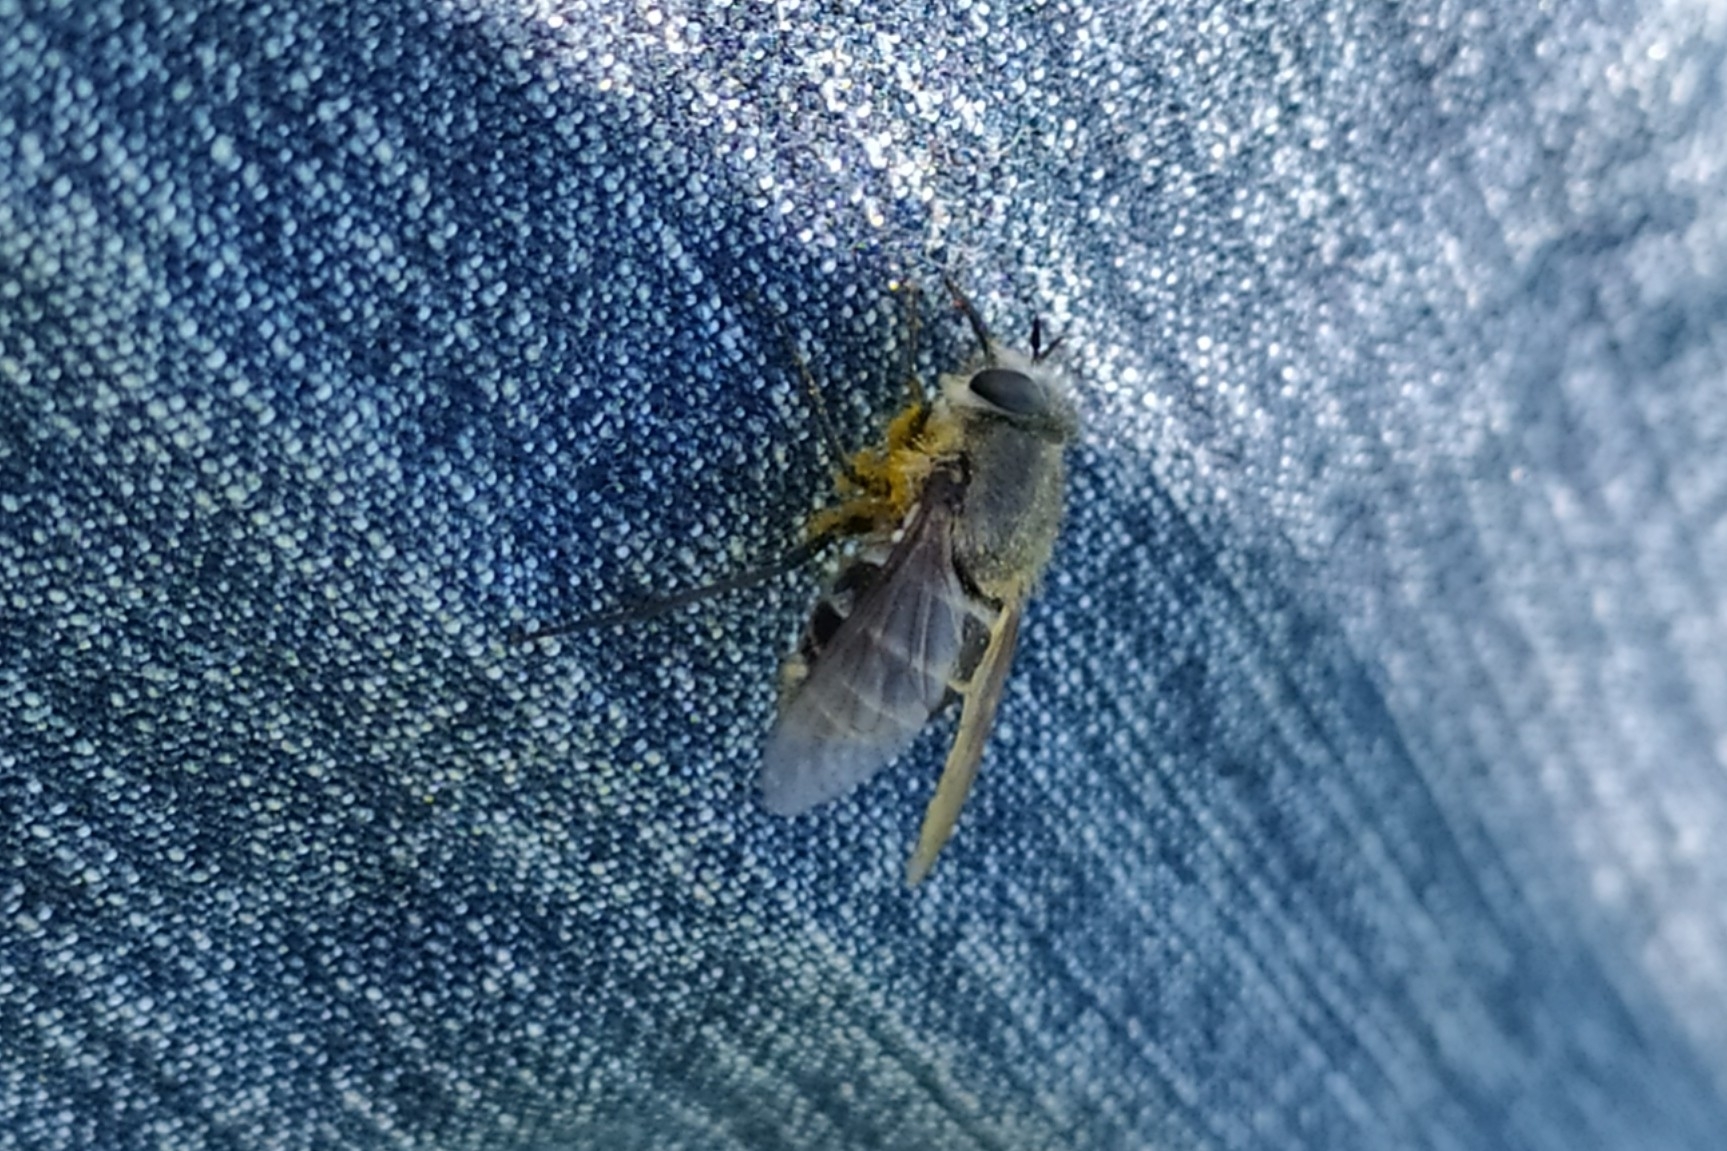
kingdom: Animalia
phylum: Arthropoda
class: Insecta
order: Diptera
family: Tabanidae
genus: Philoliche
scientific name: Philoliche atricornis
